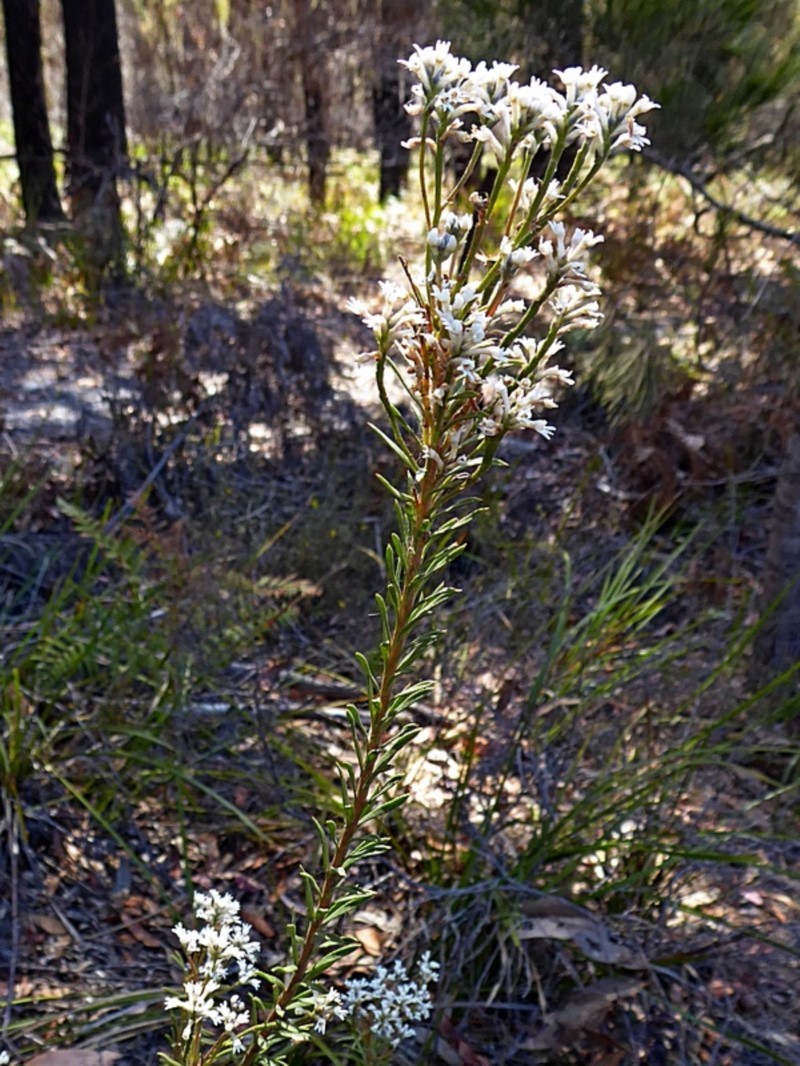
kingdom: Plantae
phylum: Tracheophyta
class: Magnoliopsida
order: Proteales
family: Proteaceae
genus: Conospermum
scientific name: Conospermum taxifolium
